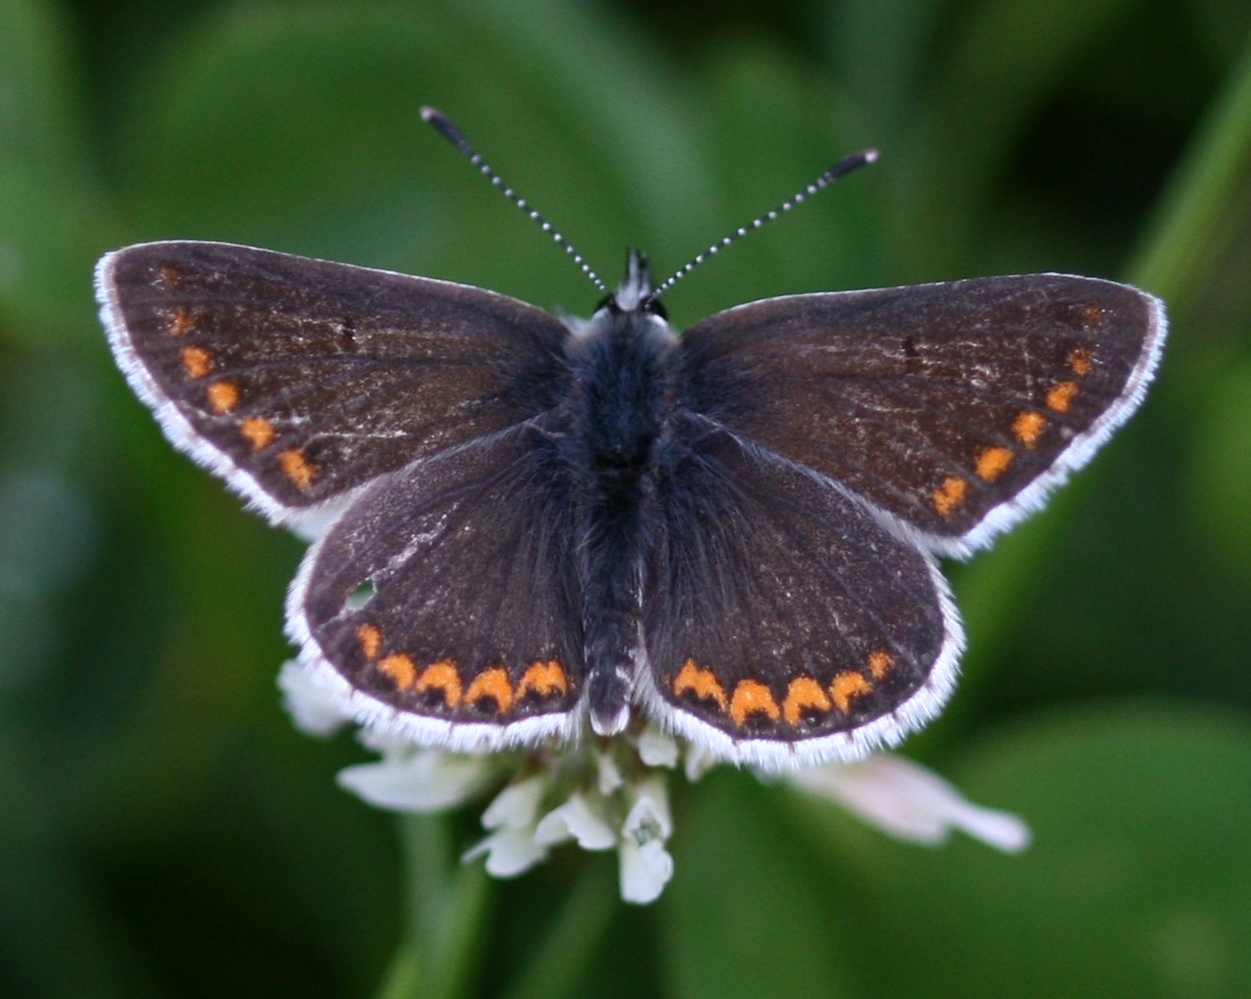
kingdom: Animalia
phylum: Arthropoda
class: Insecta
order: Lepidoptera
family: Lycaenidae
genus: Aricia
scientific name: Aricia agestis
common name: Brown argus
